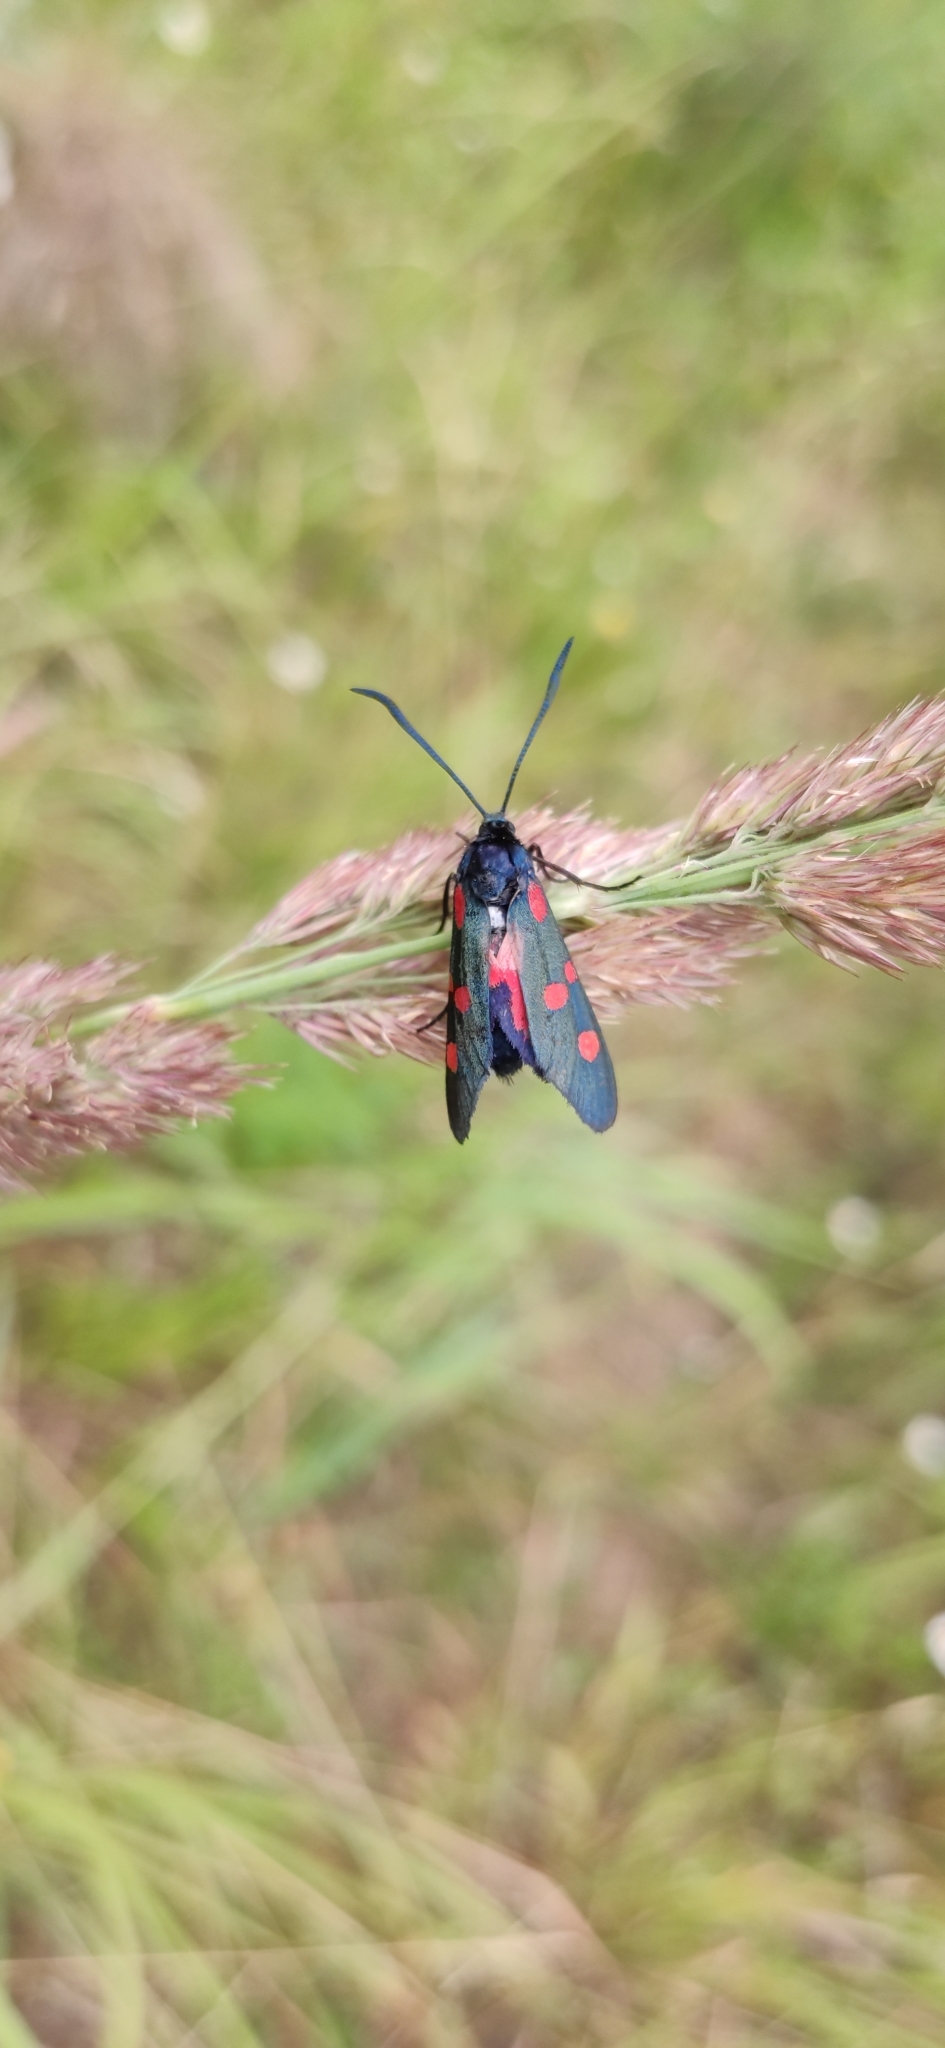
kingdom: Animalia
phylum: Arthropoda
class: Insecta
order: Lepidoptera
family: Zygaenidae
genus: Zygaena
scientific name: Zygaena lonicerae
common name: Narrow-bordered five-spot burnet
